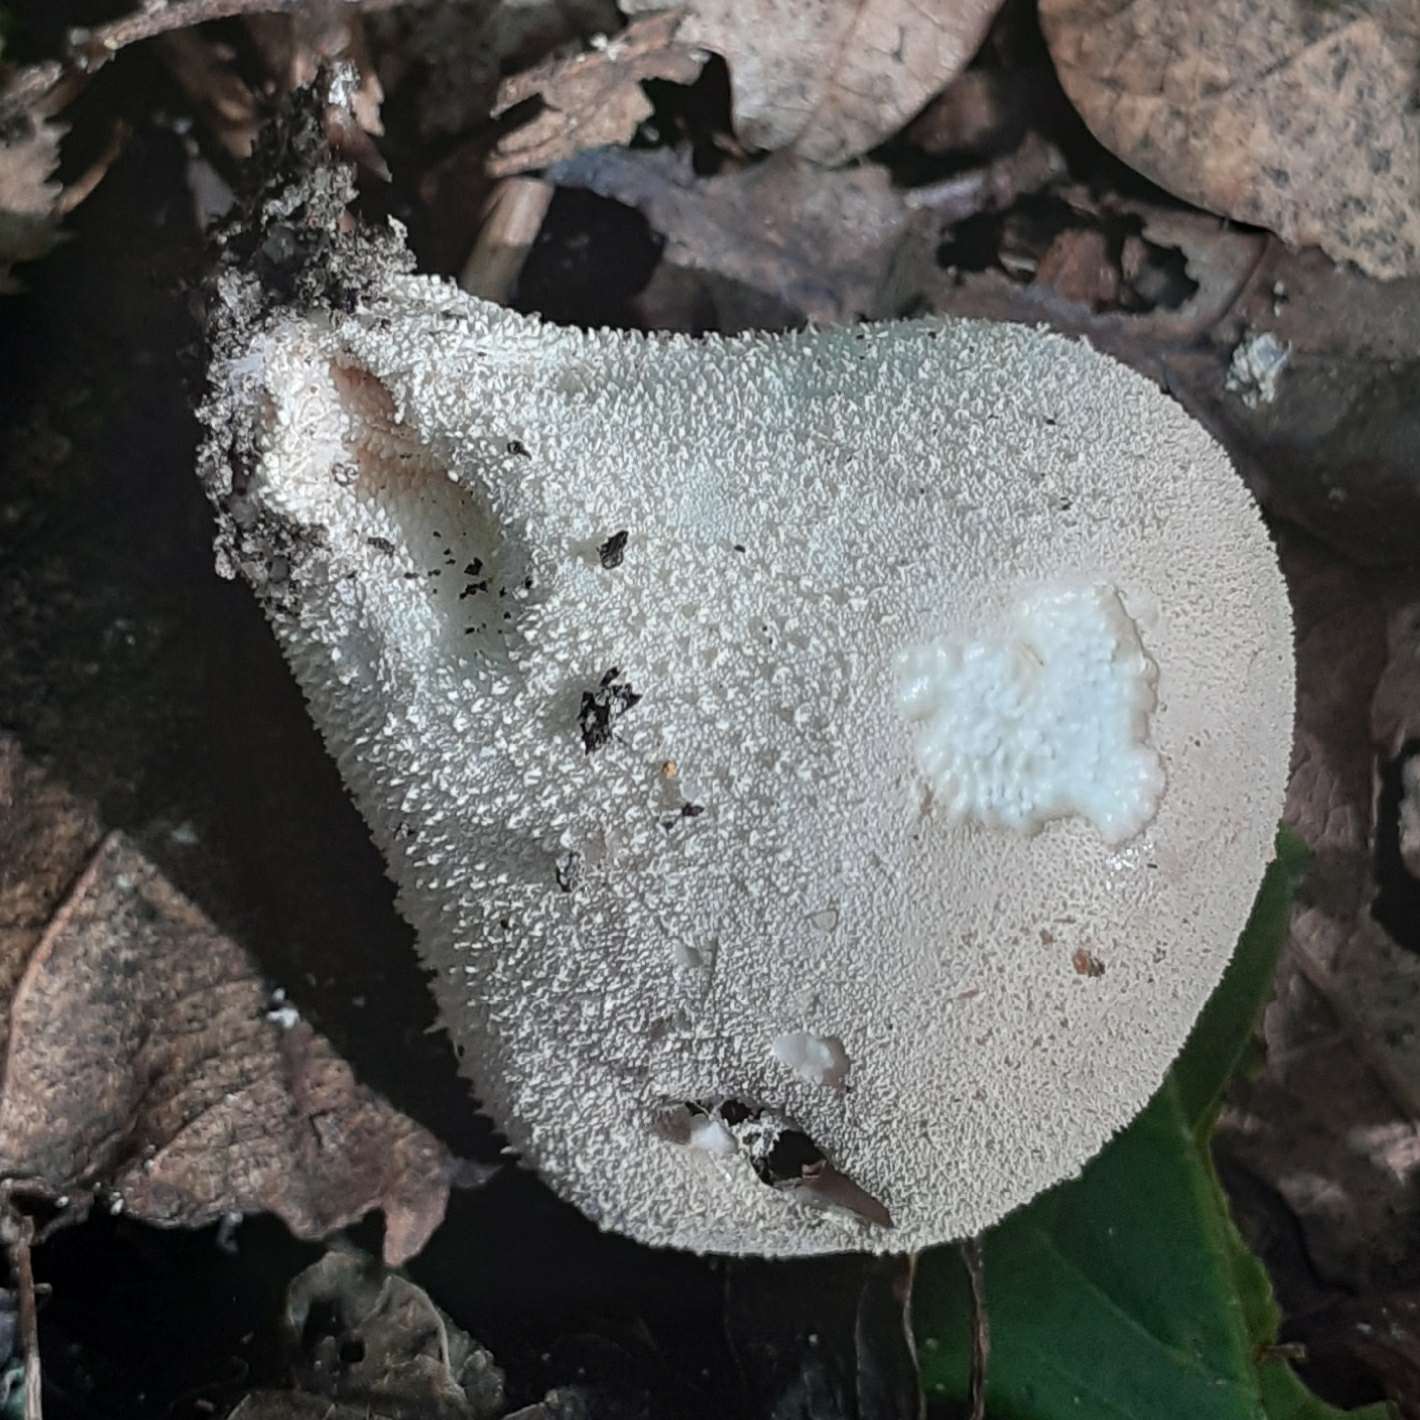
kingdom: Fungi
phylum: Basidiomycota
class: Agaricomycetes
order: Agaricales
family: Lycoperdaceae
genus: Lycoperdon
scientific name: Lycoperdon perlatum
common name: Common puffball
